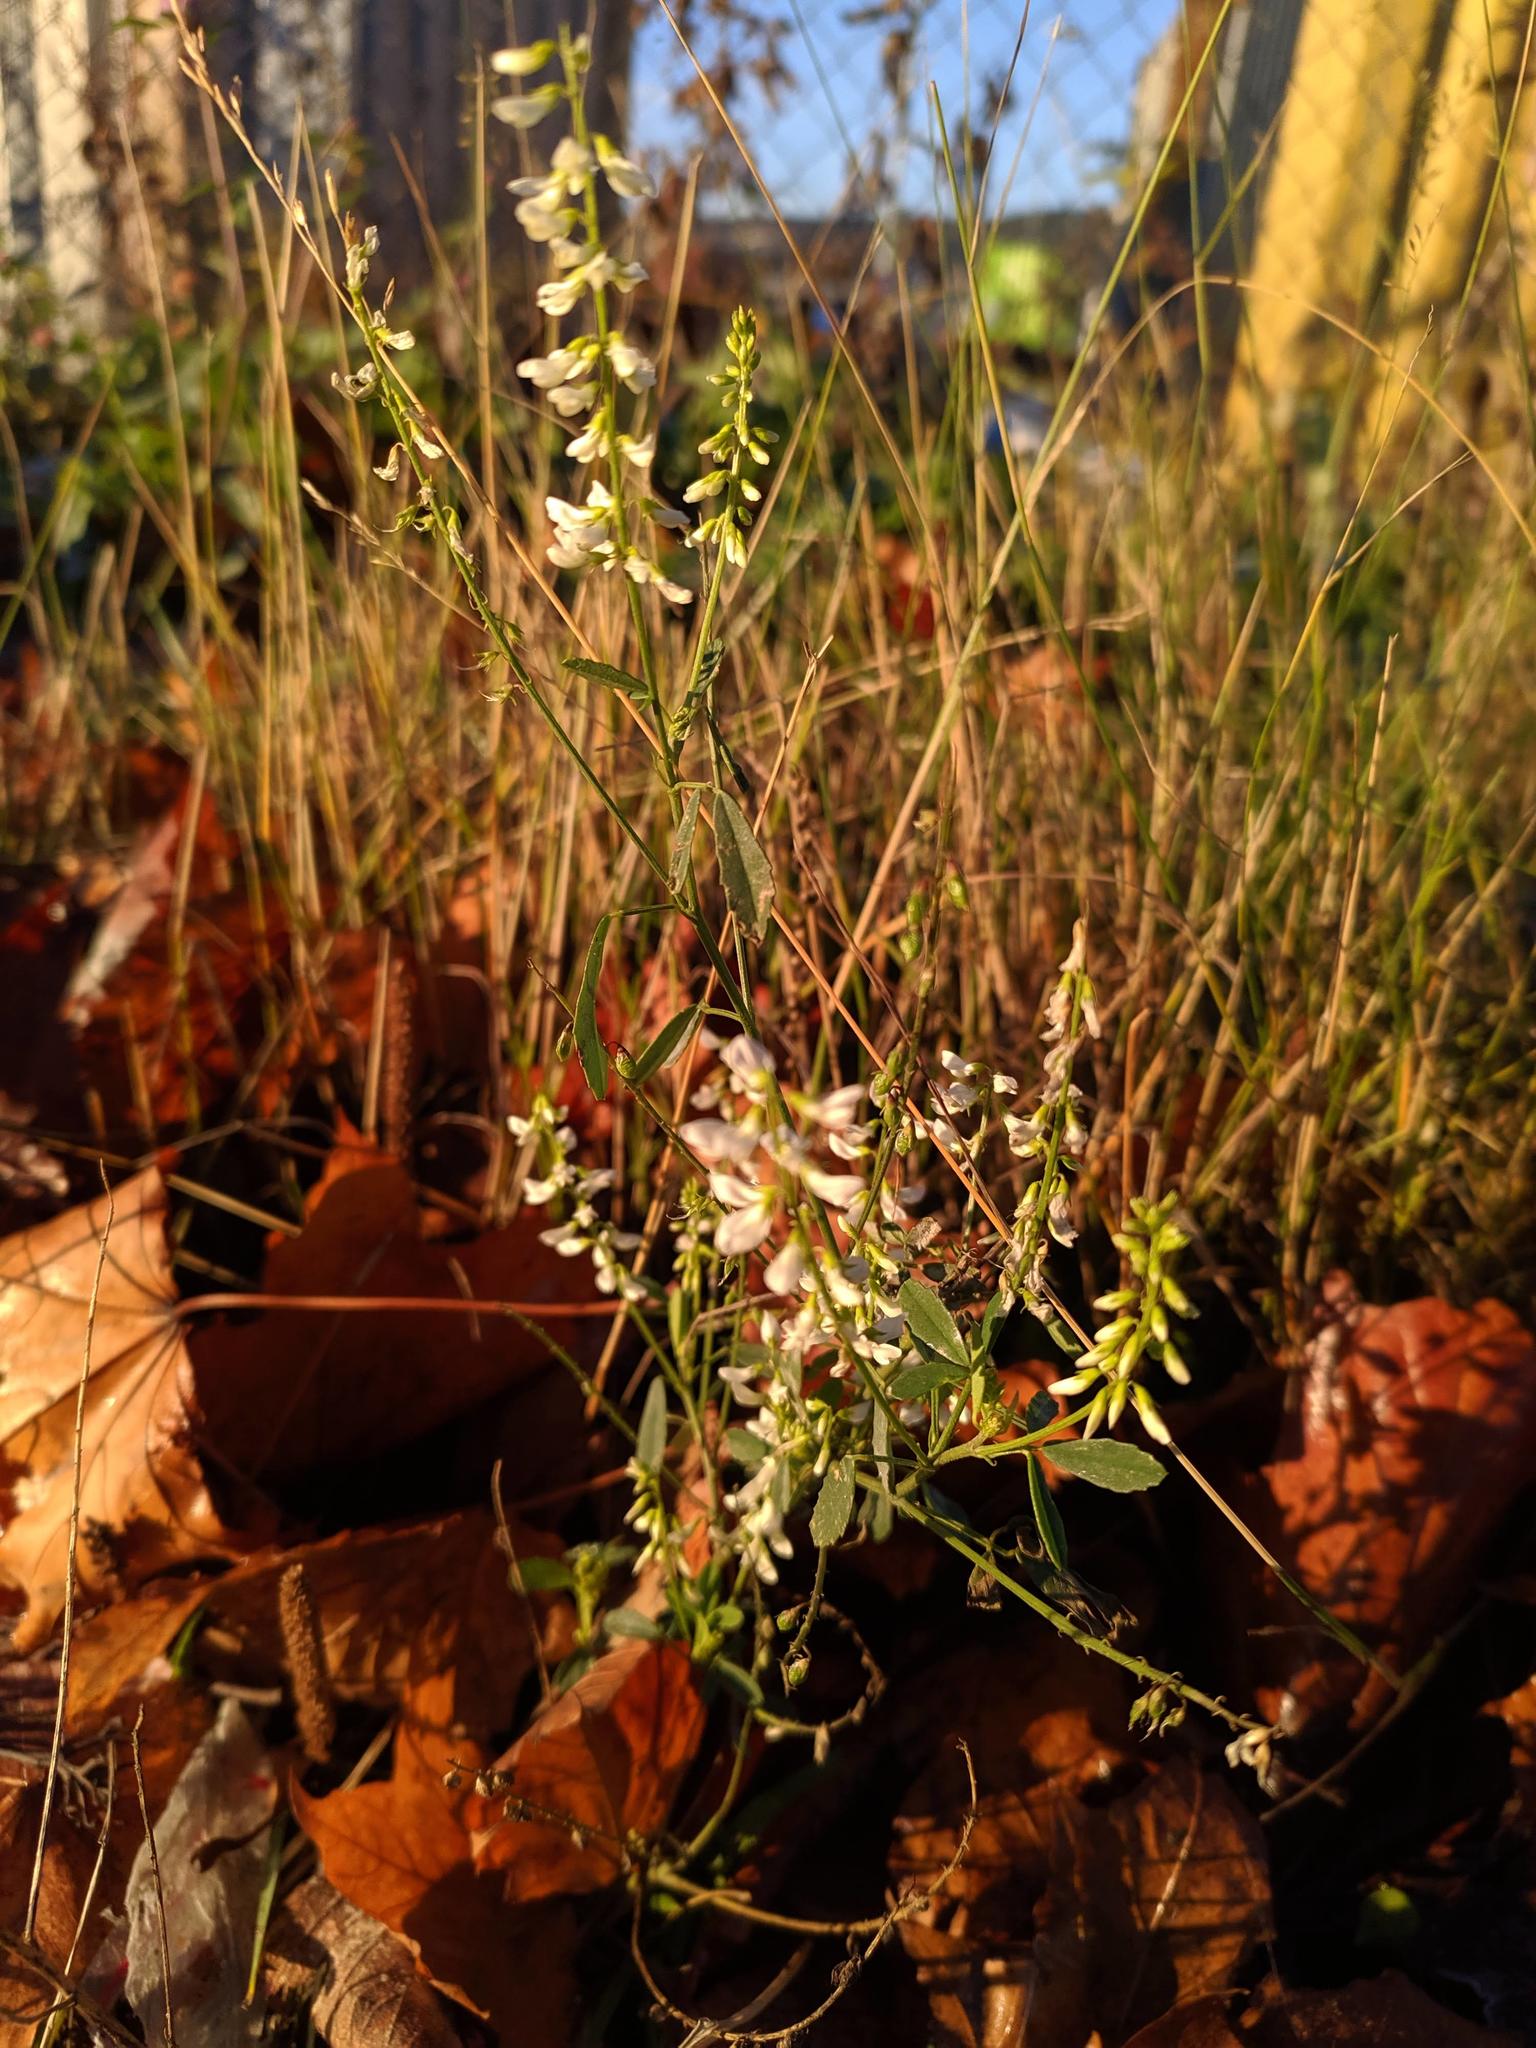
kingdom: Plantae
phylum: Tracheophyta
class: Magnoliopsida
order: Fabales
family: Fabaceae
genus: Melilotus
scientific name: Melilotus albus
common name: White melilot
